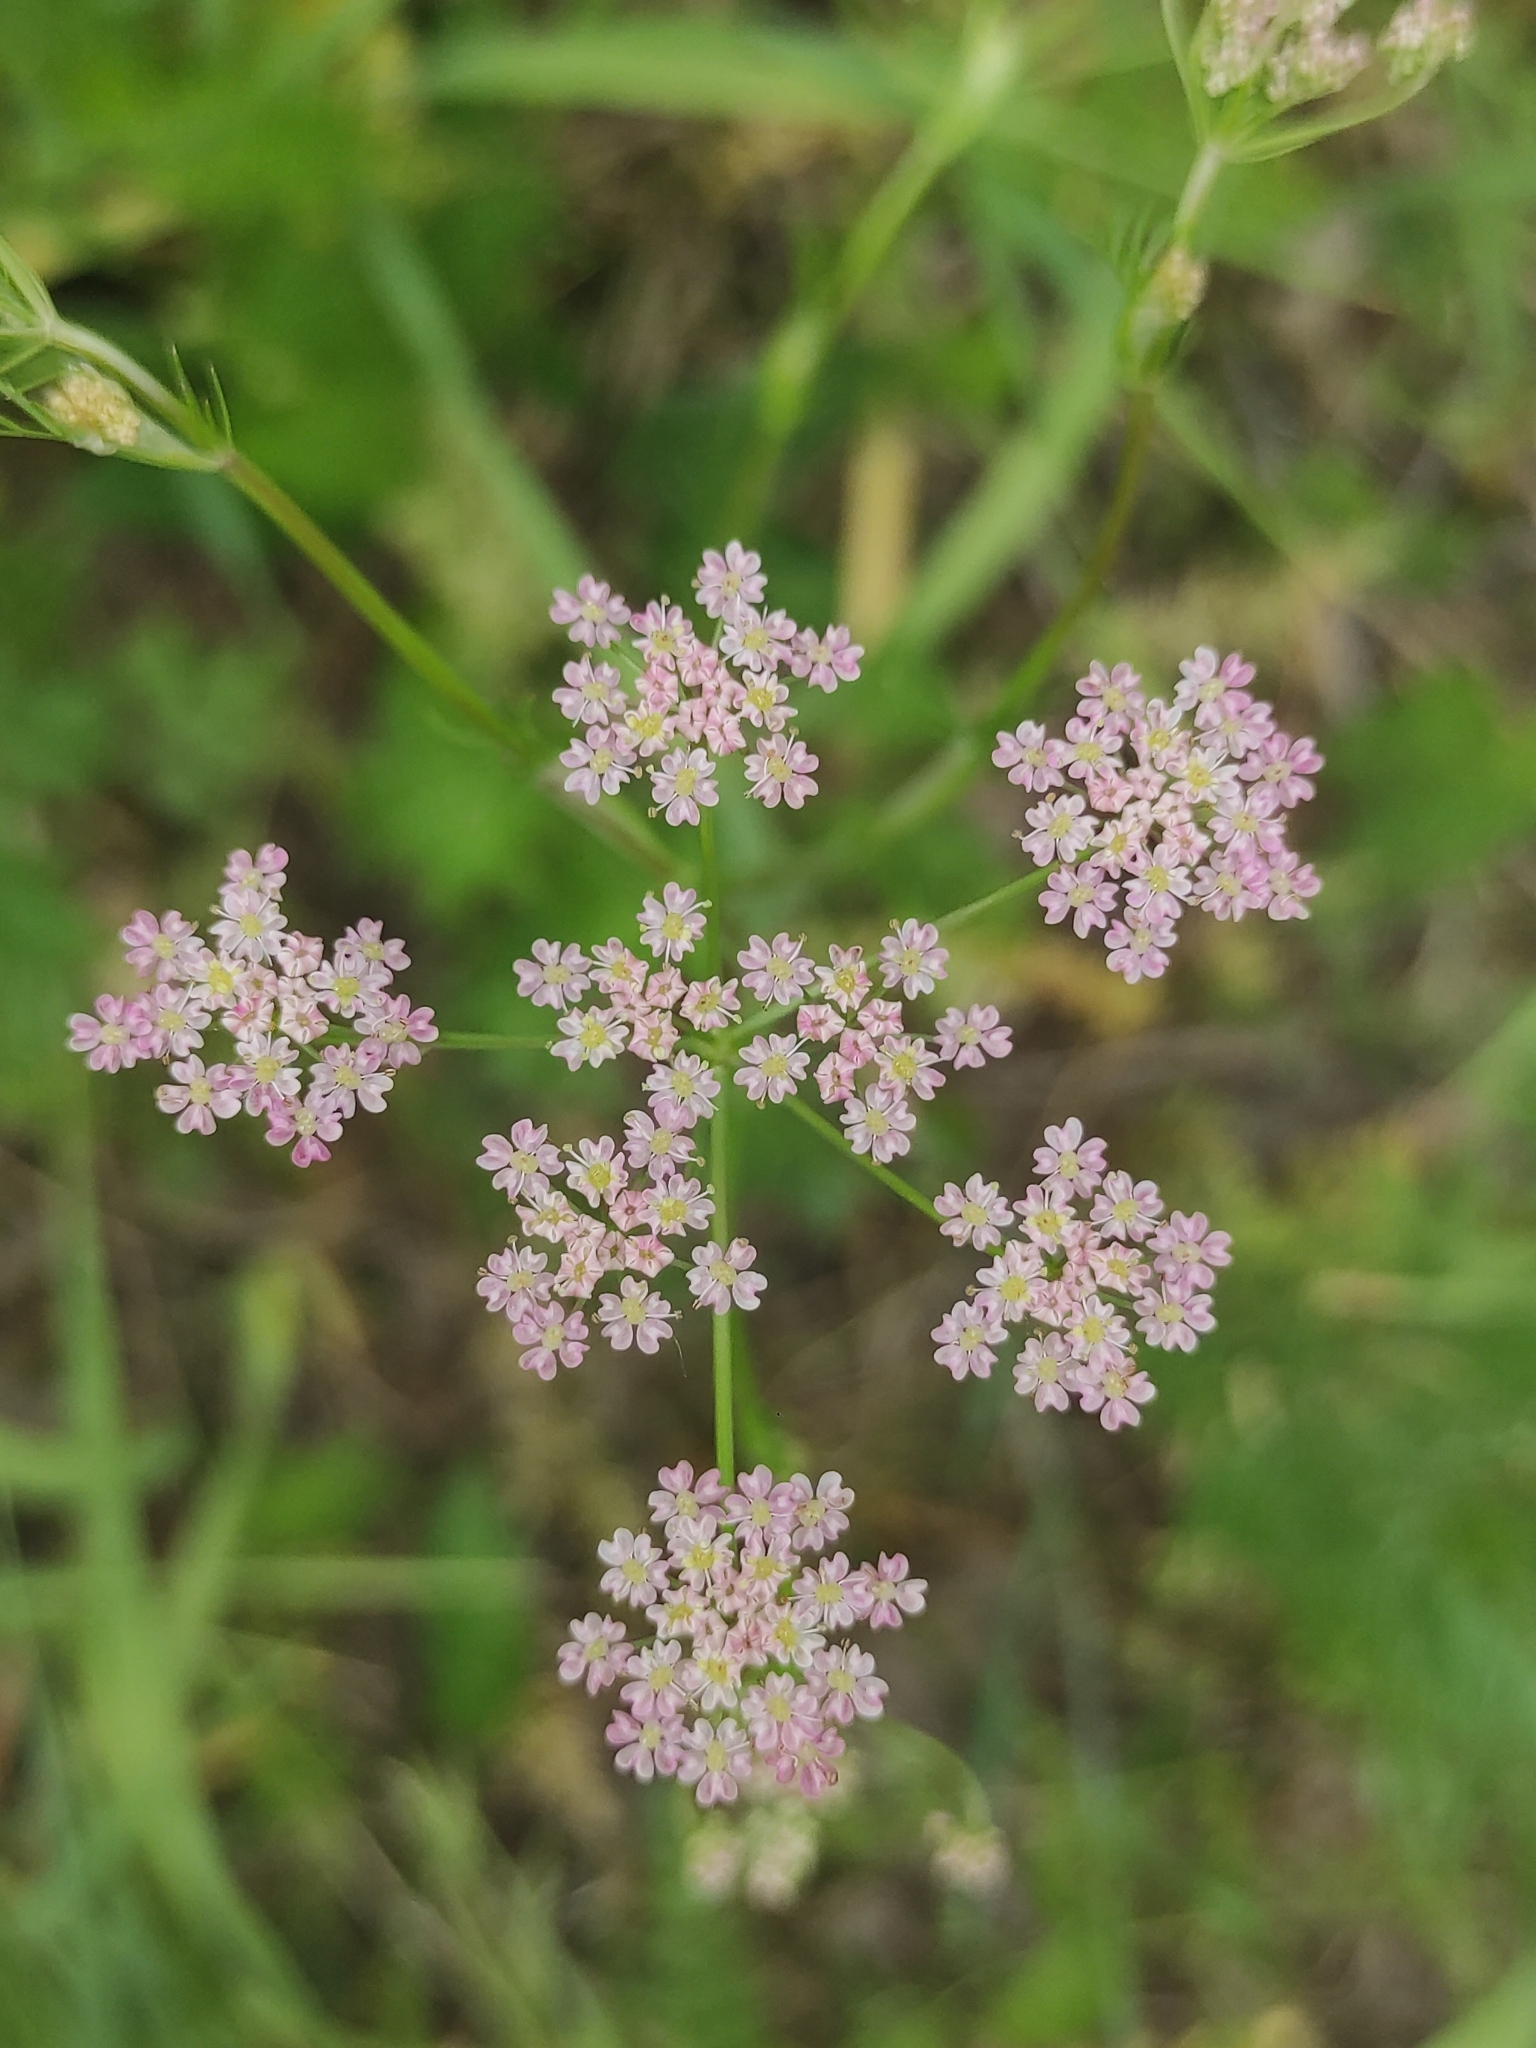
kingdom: Plantae
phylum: Tracheophyta
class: Magnoliopsida
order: Apiales
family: Apiaceae
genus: Carum
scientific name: Carum carvi
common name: Caraway
